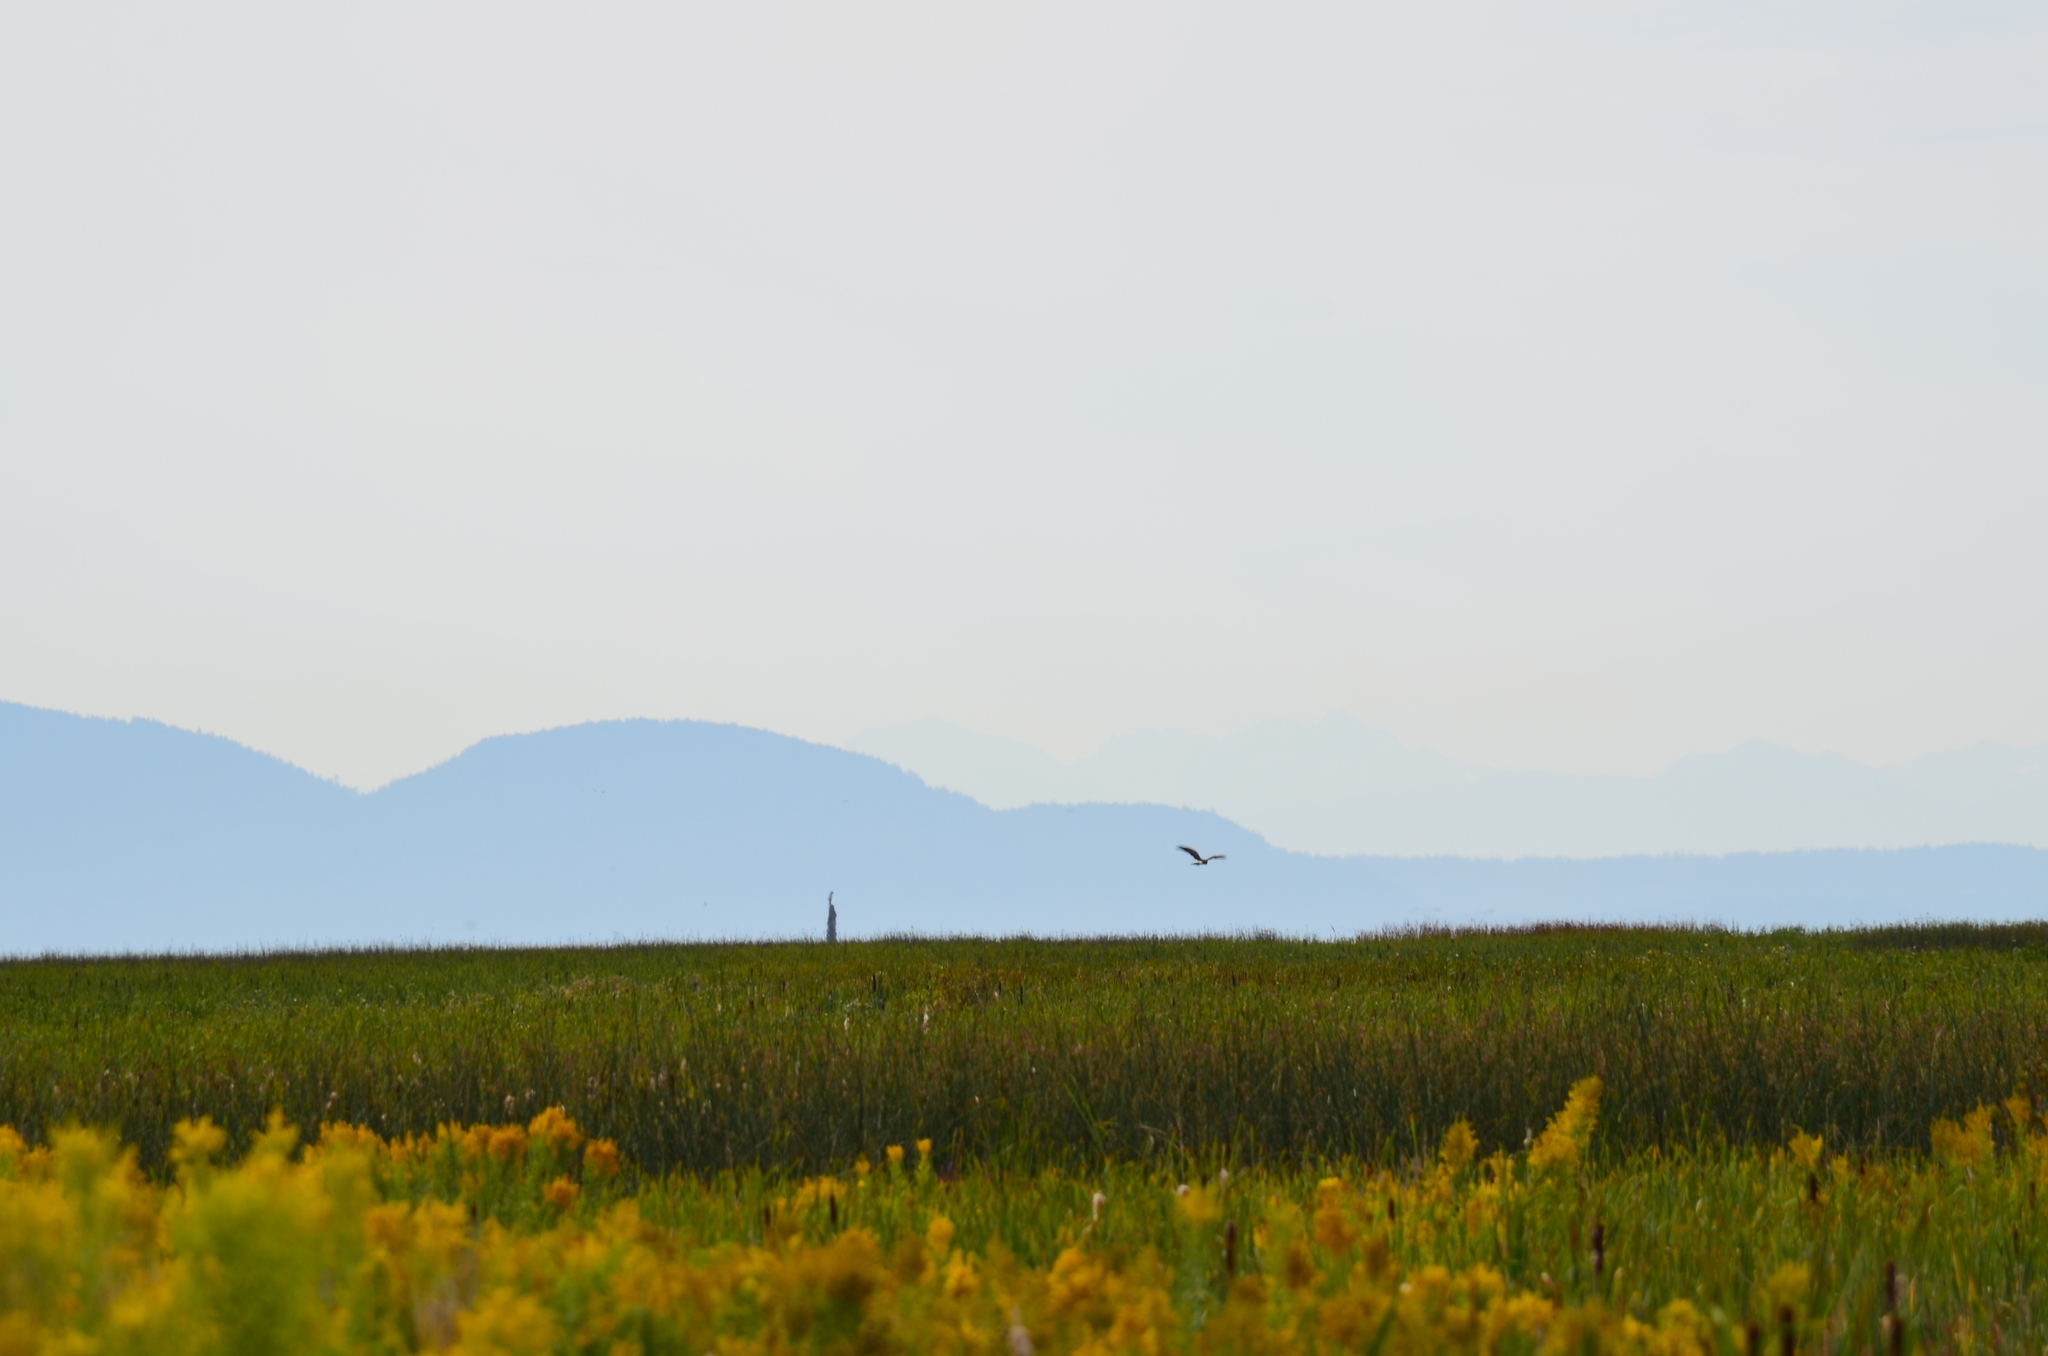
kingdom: Animalia
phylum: Chordata
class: Aves
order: Accipitriformes
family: Accipitridae
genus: Circus
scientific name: Circus cyaneus
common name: Hen harrier
